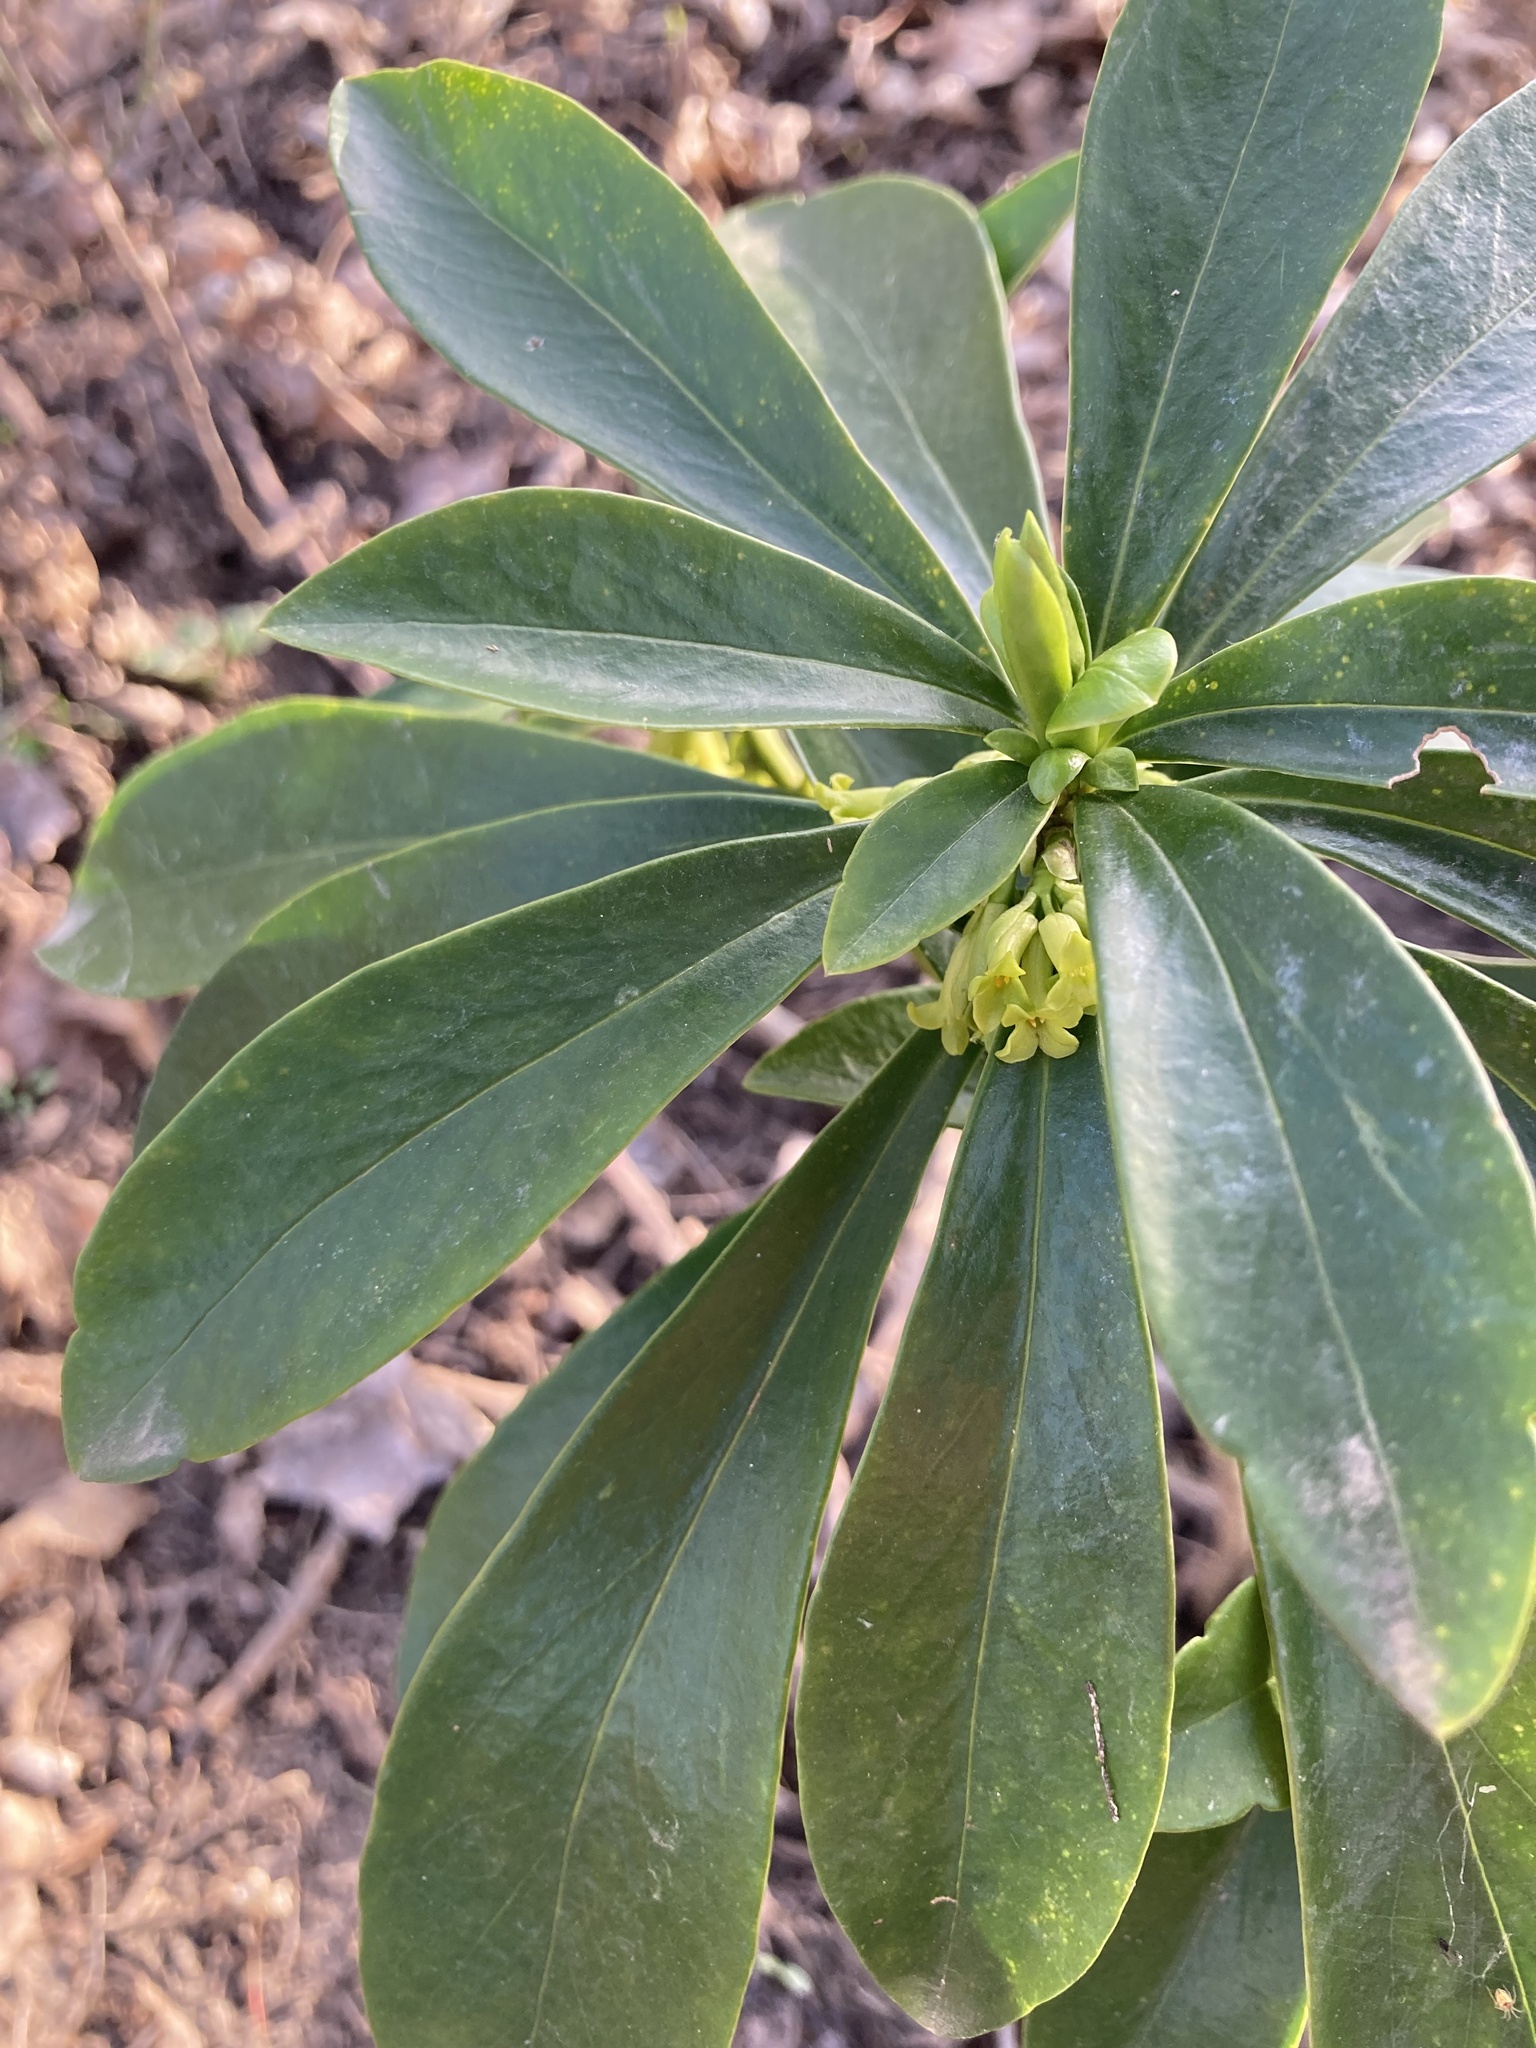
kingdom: Plantae
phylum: Tracheophyta
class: Magnoliopsida
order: Malvales
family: Thymelaeaceae
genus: Daphne
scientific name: Daphne laureola
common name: Spurge-laurel
